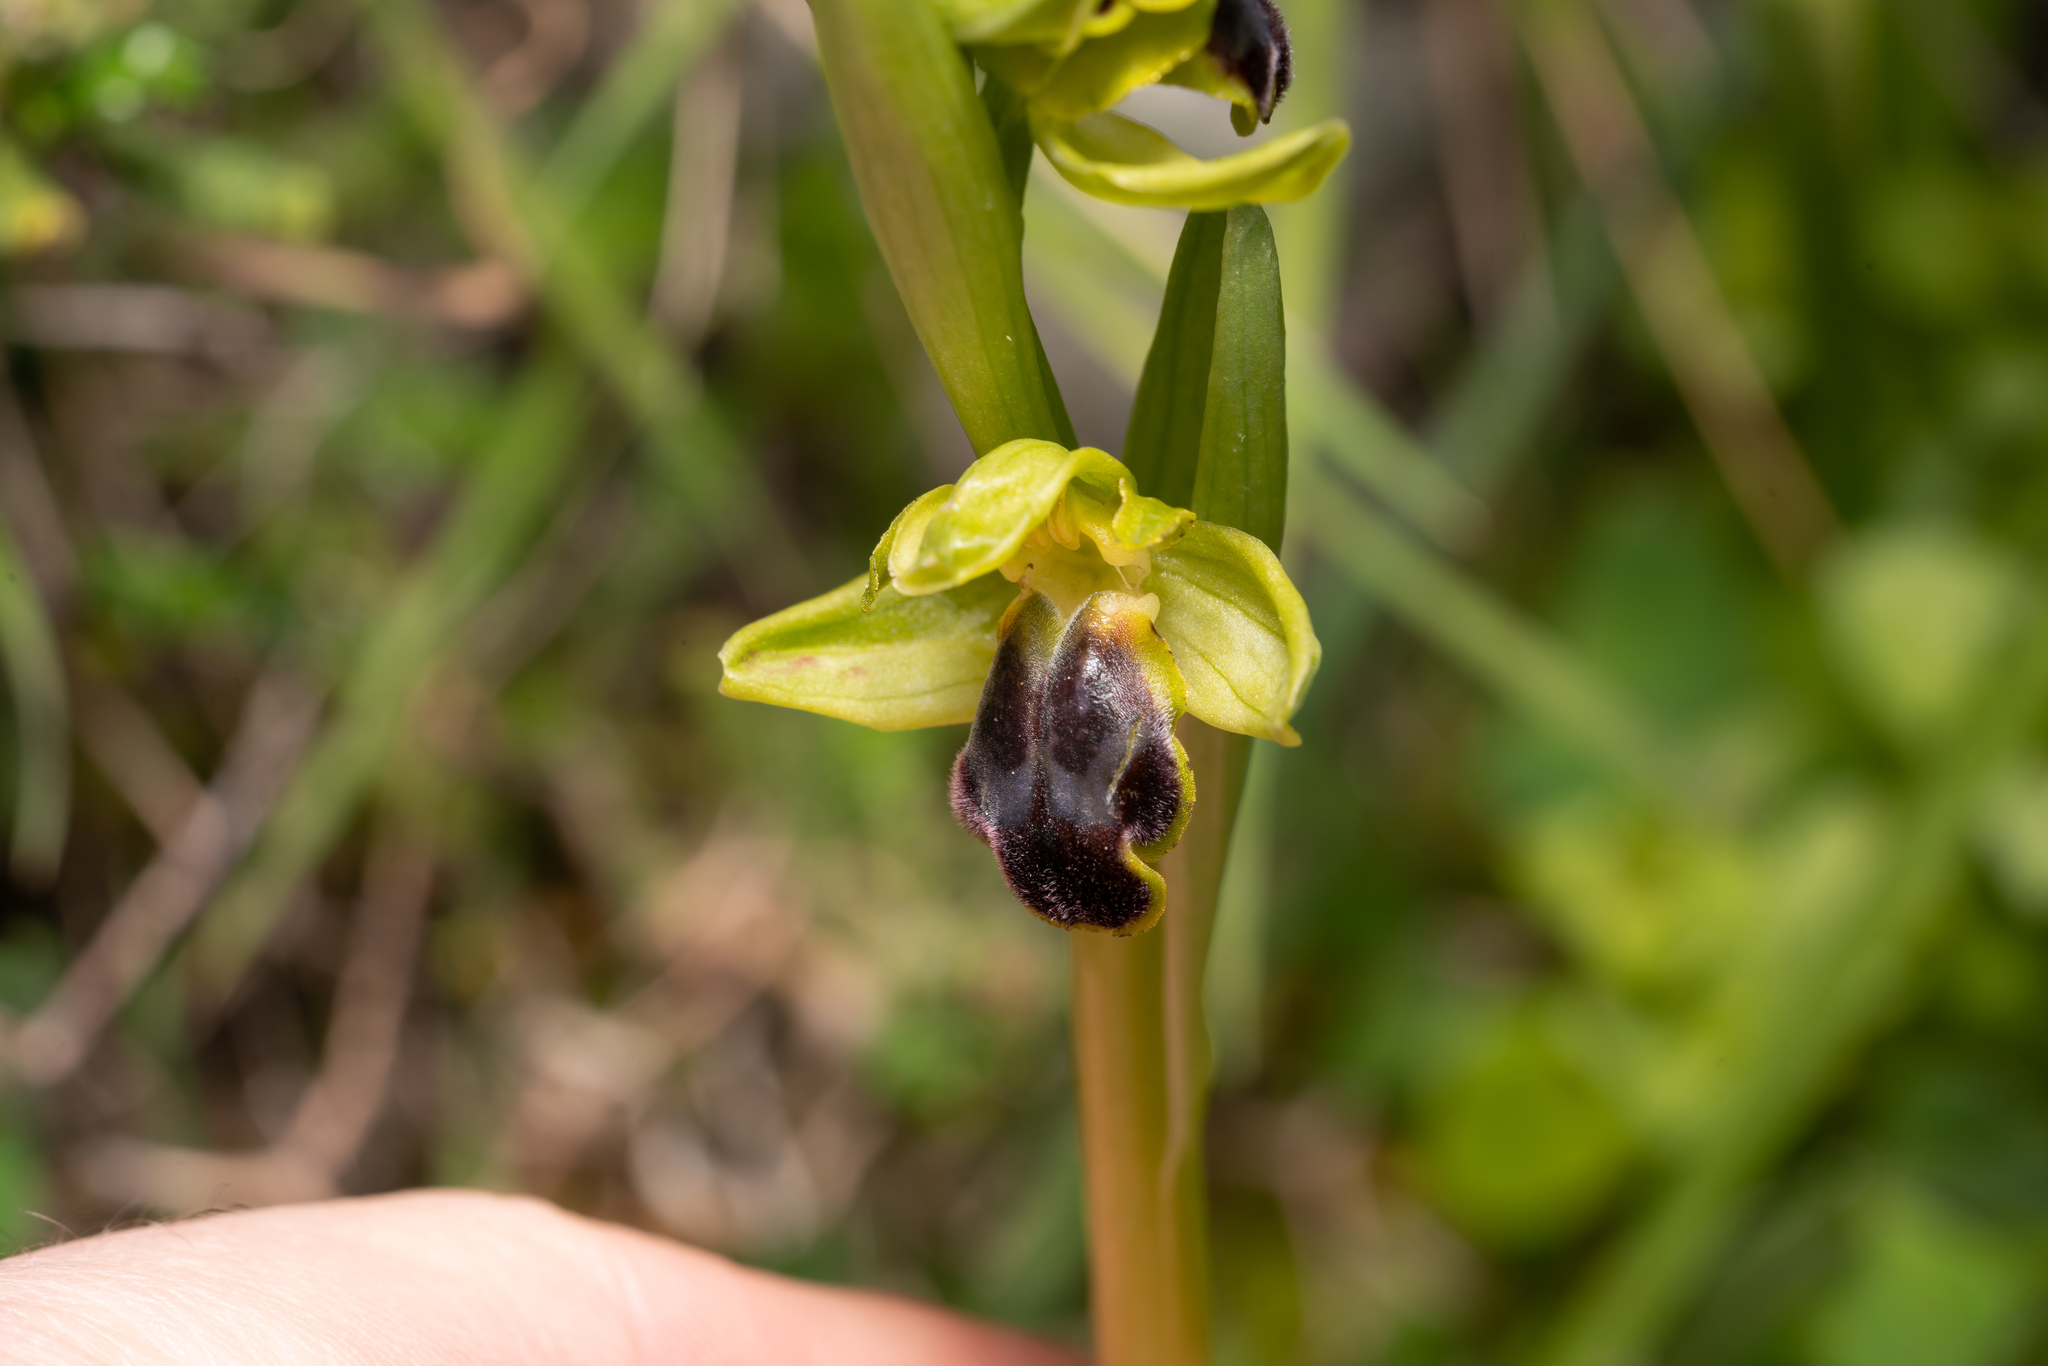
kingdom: Plantae
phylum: Tracheophyta
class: Liliopsida
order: Asparagales
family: Orchidaceae
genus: Ophrys
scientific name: Ophrys fusca
